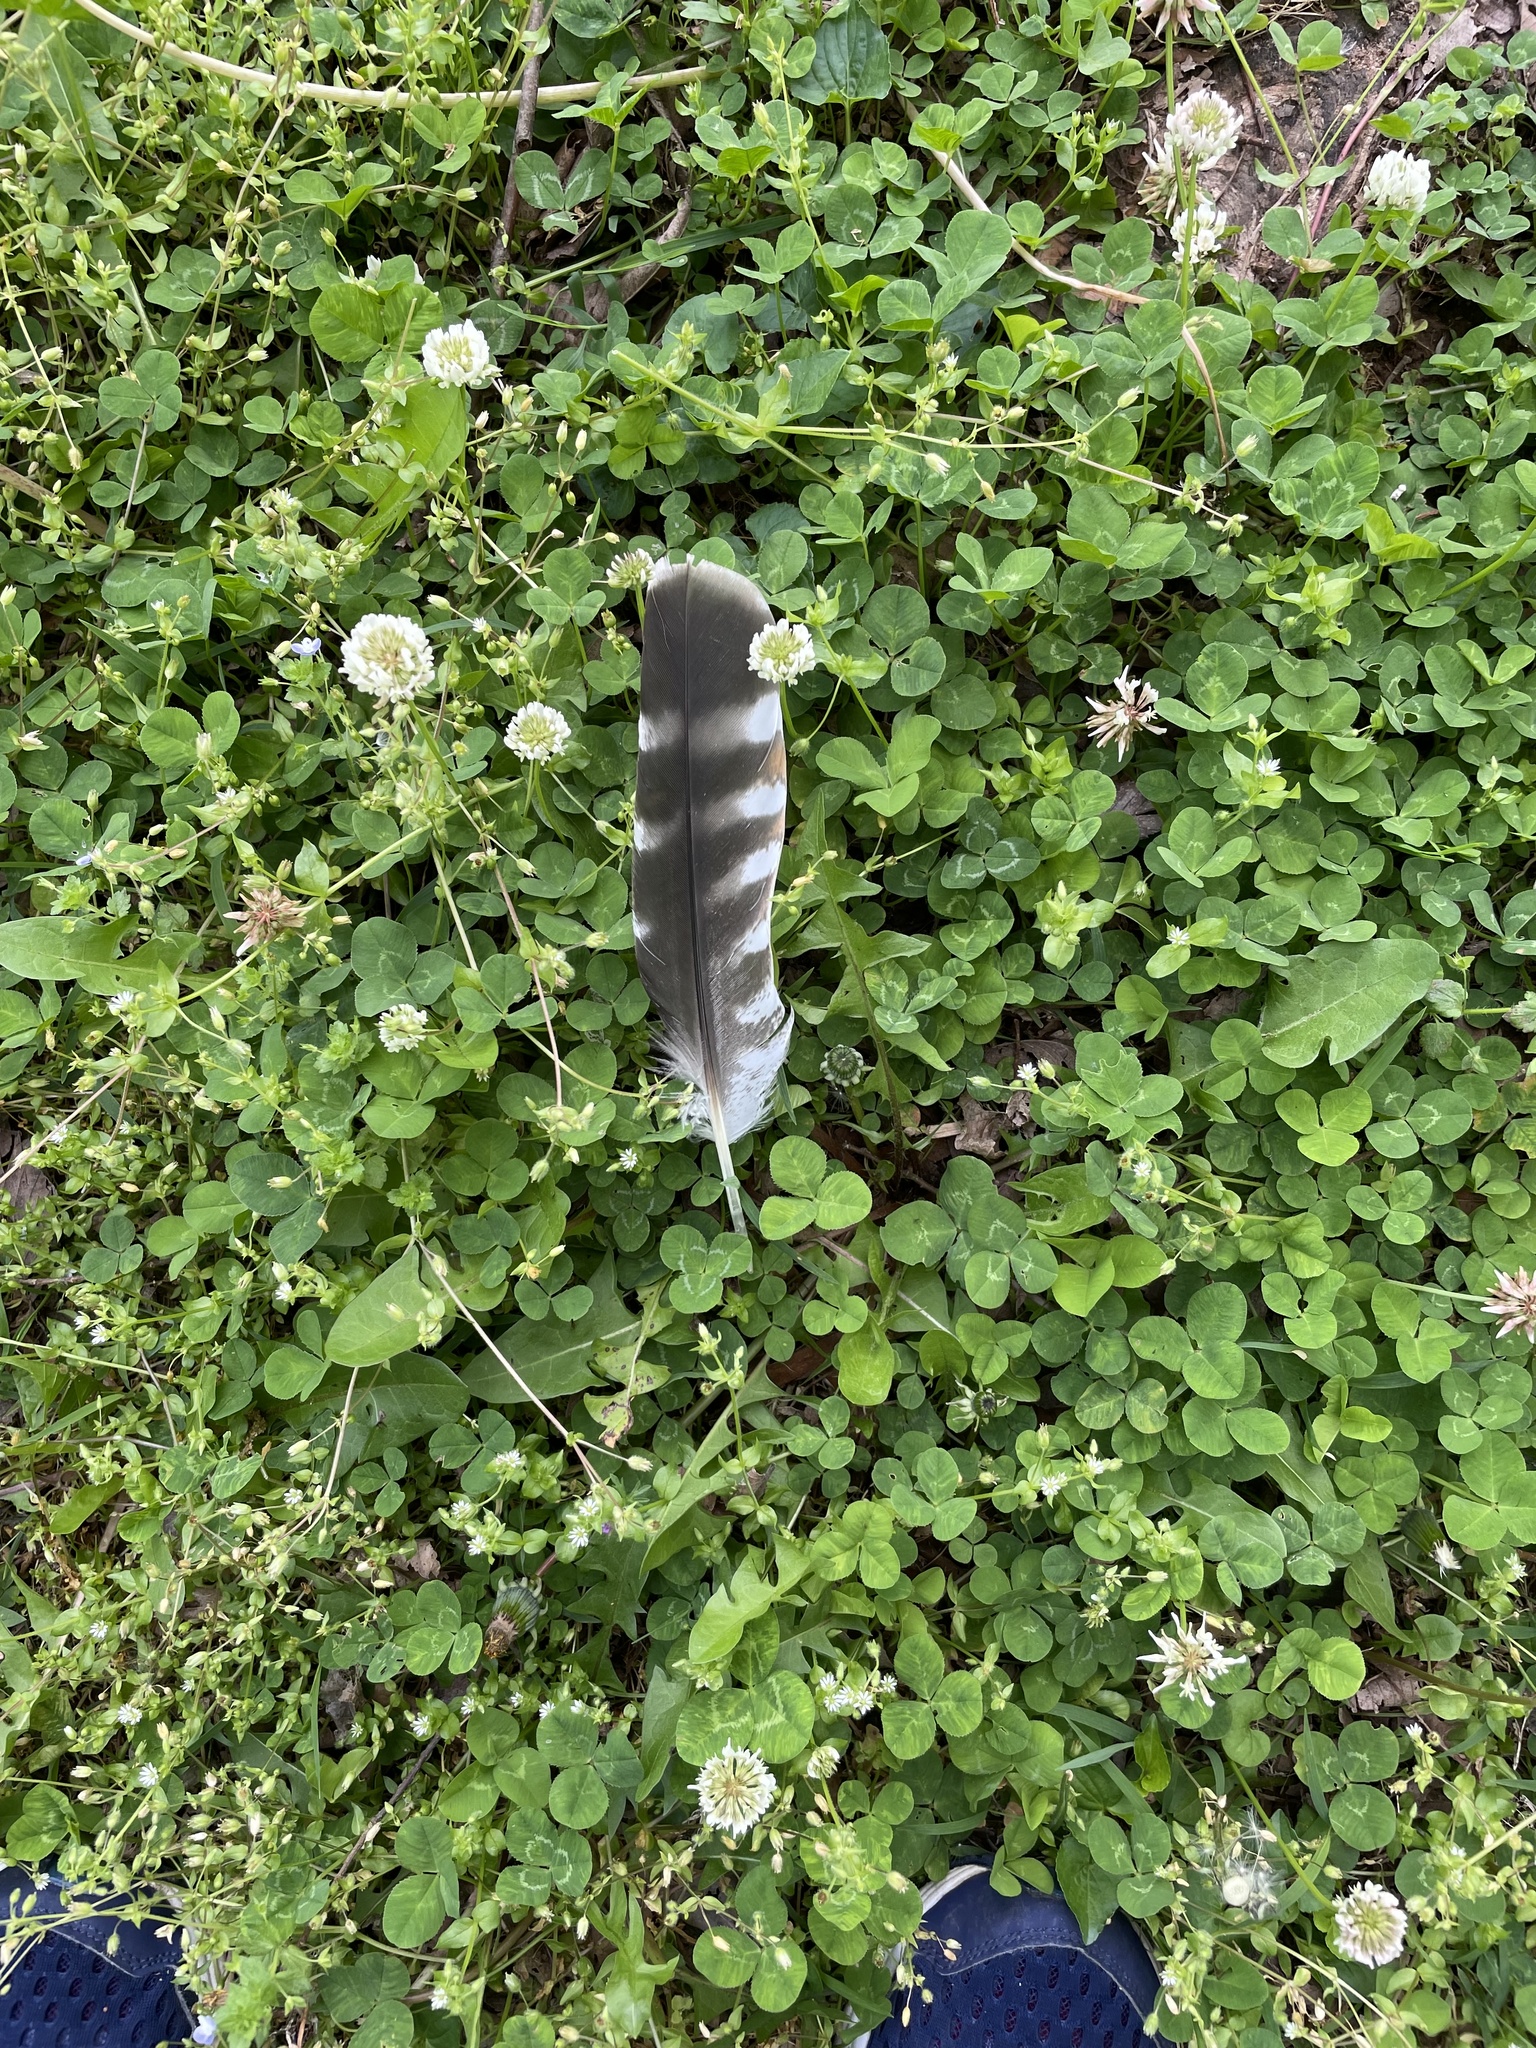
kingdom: Animalia
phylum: Chordata
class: Aves
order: Accipitriformes
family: Accipitridae
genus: Buteo
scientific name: Buteo lineatus
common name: Red-shouldered hawk
